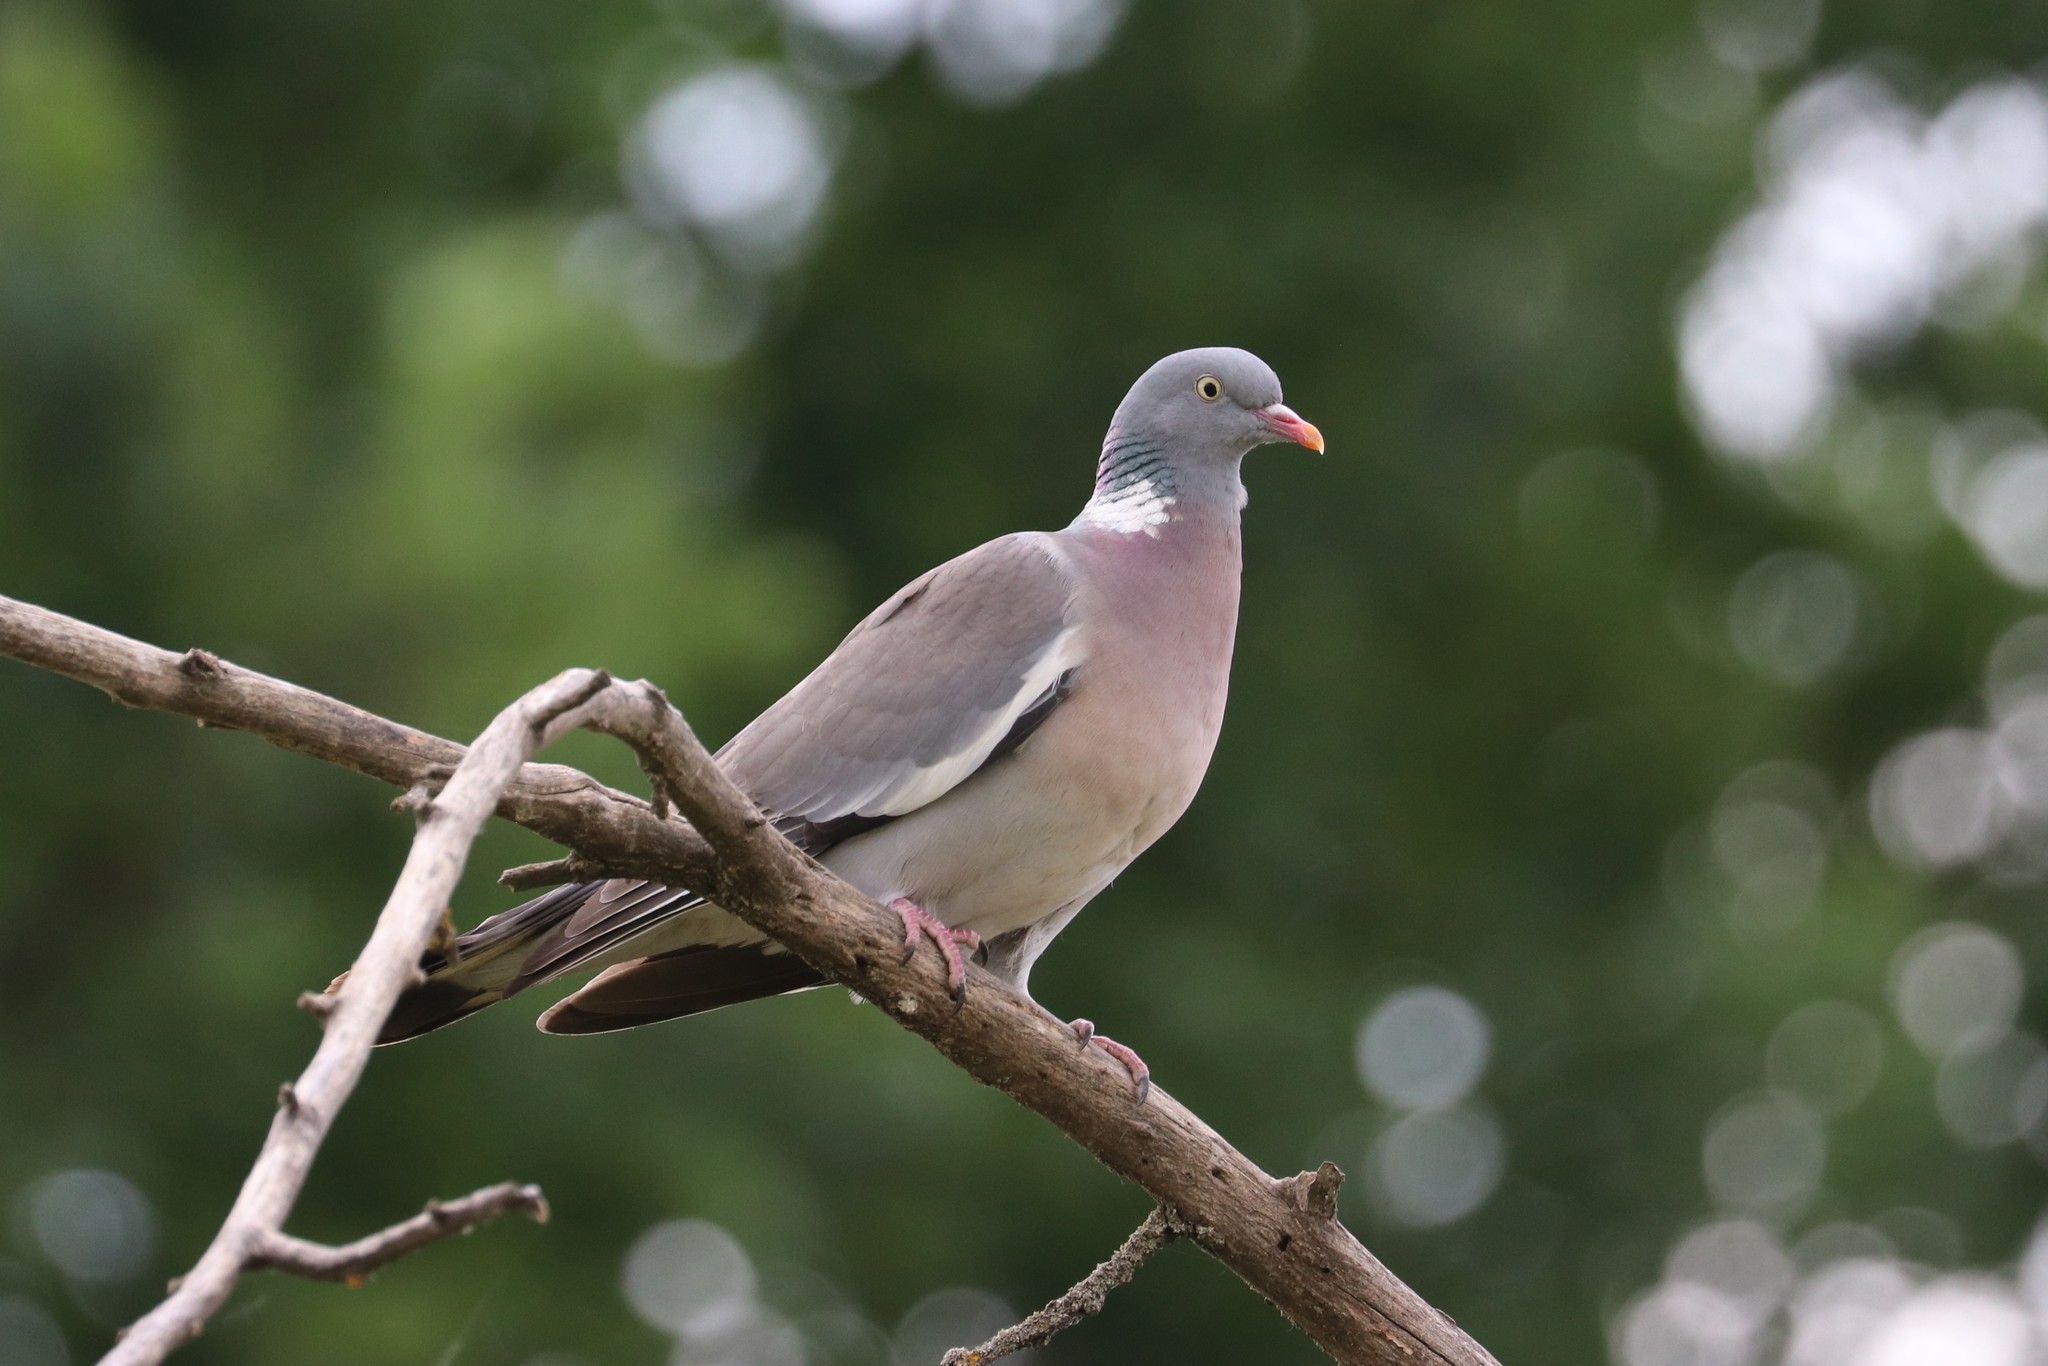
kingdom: Animalia
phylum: Chordata
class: Aves
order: Columbiformes
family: Columbidae
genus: Columba
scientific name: Columba palumbus
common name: Common wood pigeon
